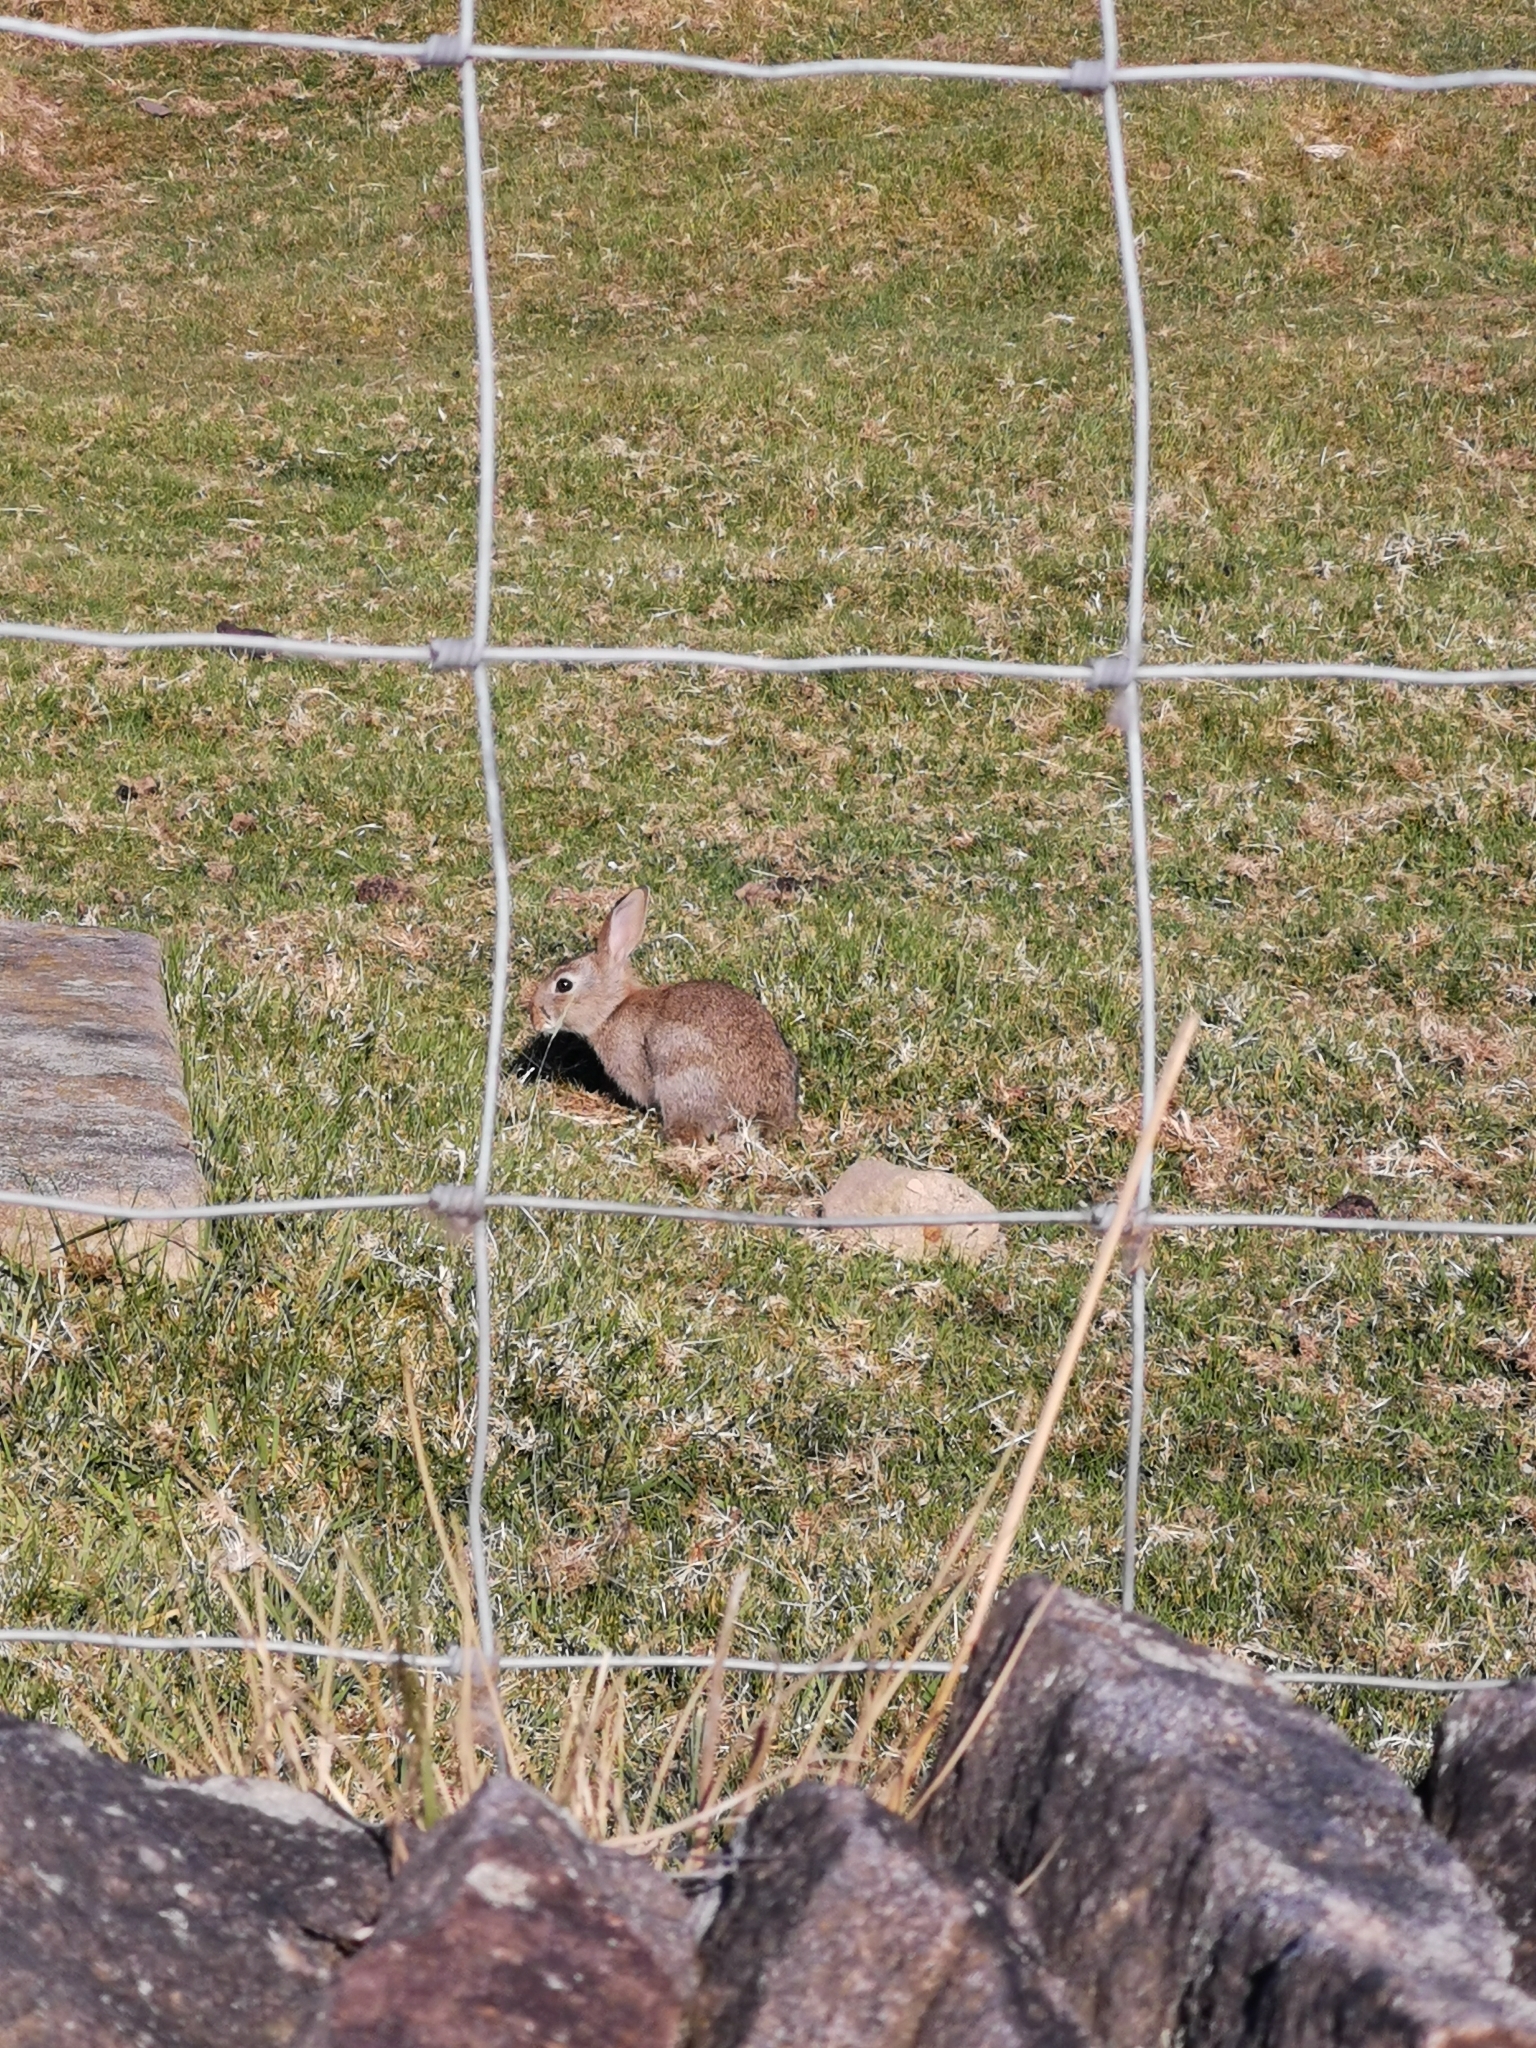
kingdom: Animalia
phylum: Chordata
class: Mammalia
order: Lagomorpha
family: Leporidae
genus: Oryctolagus
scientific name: Oryctolagus cuniculus
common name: European rabbit
